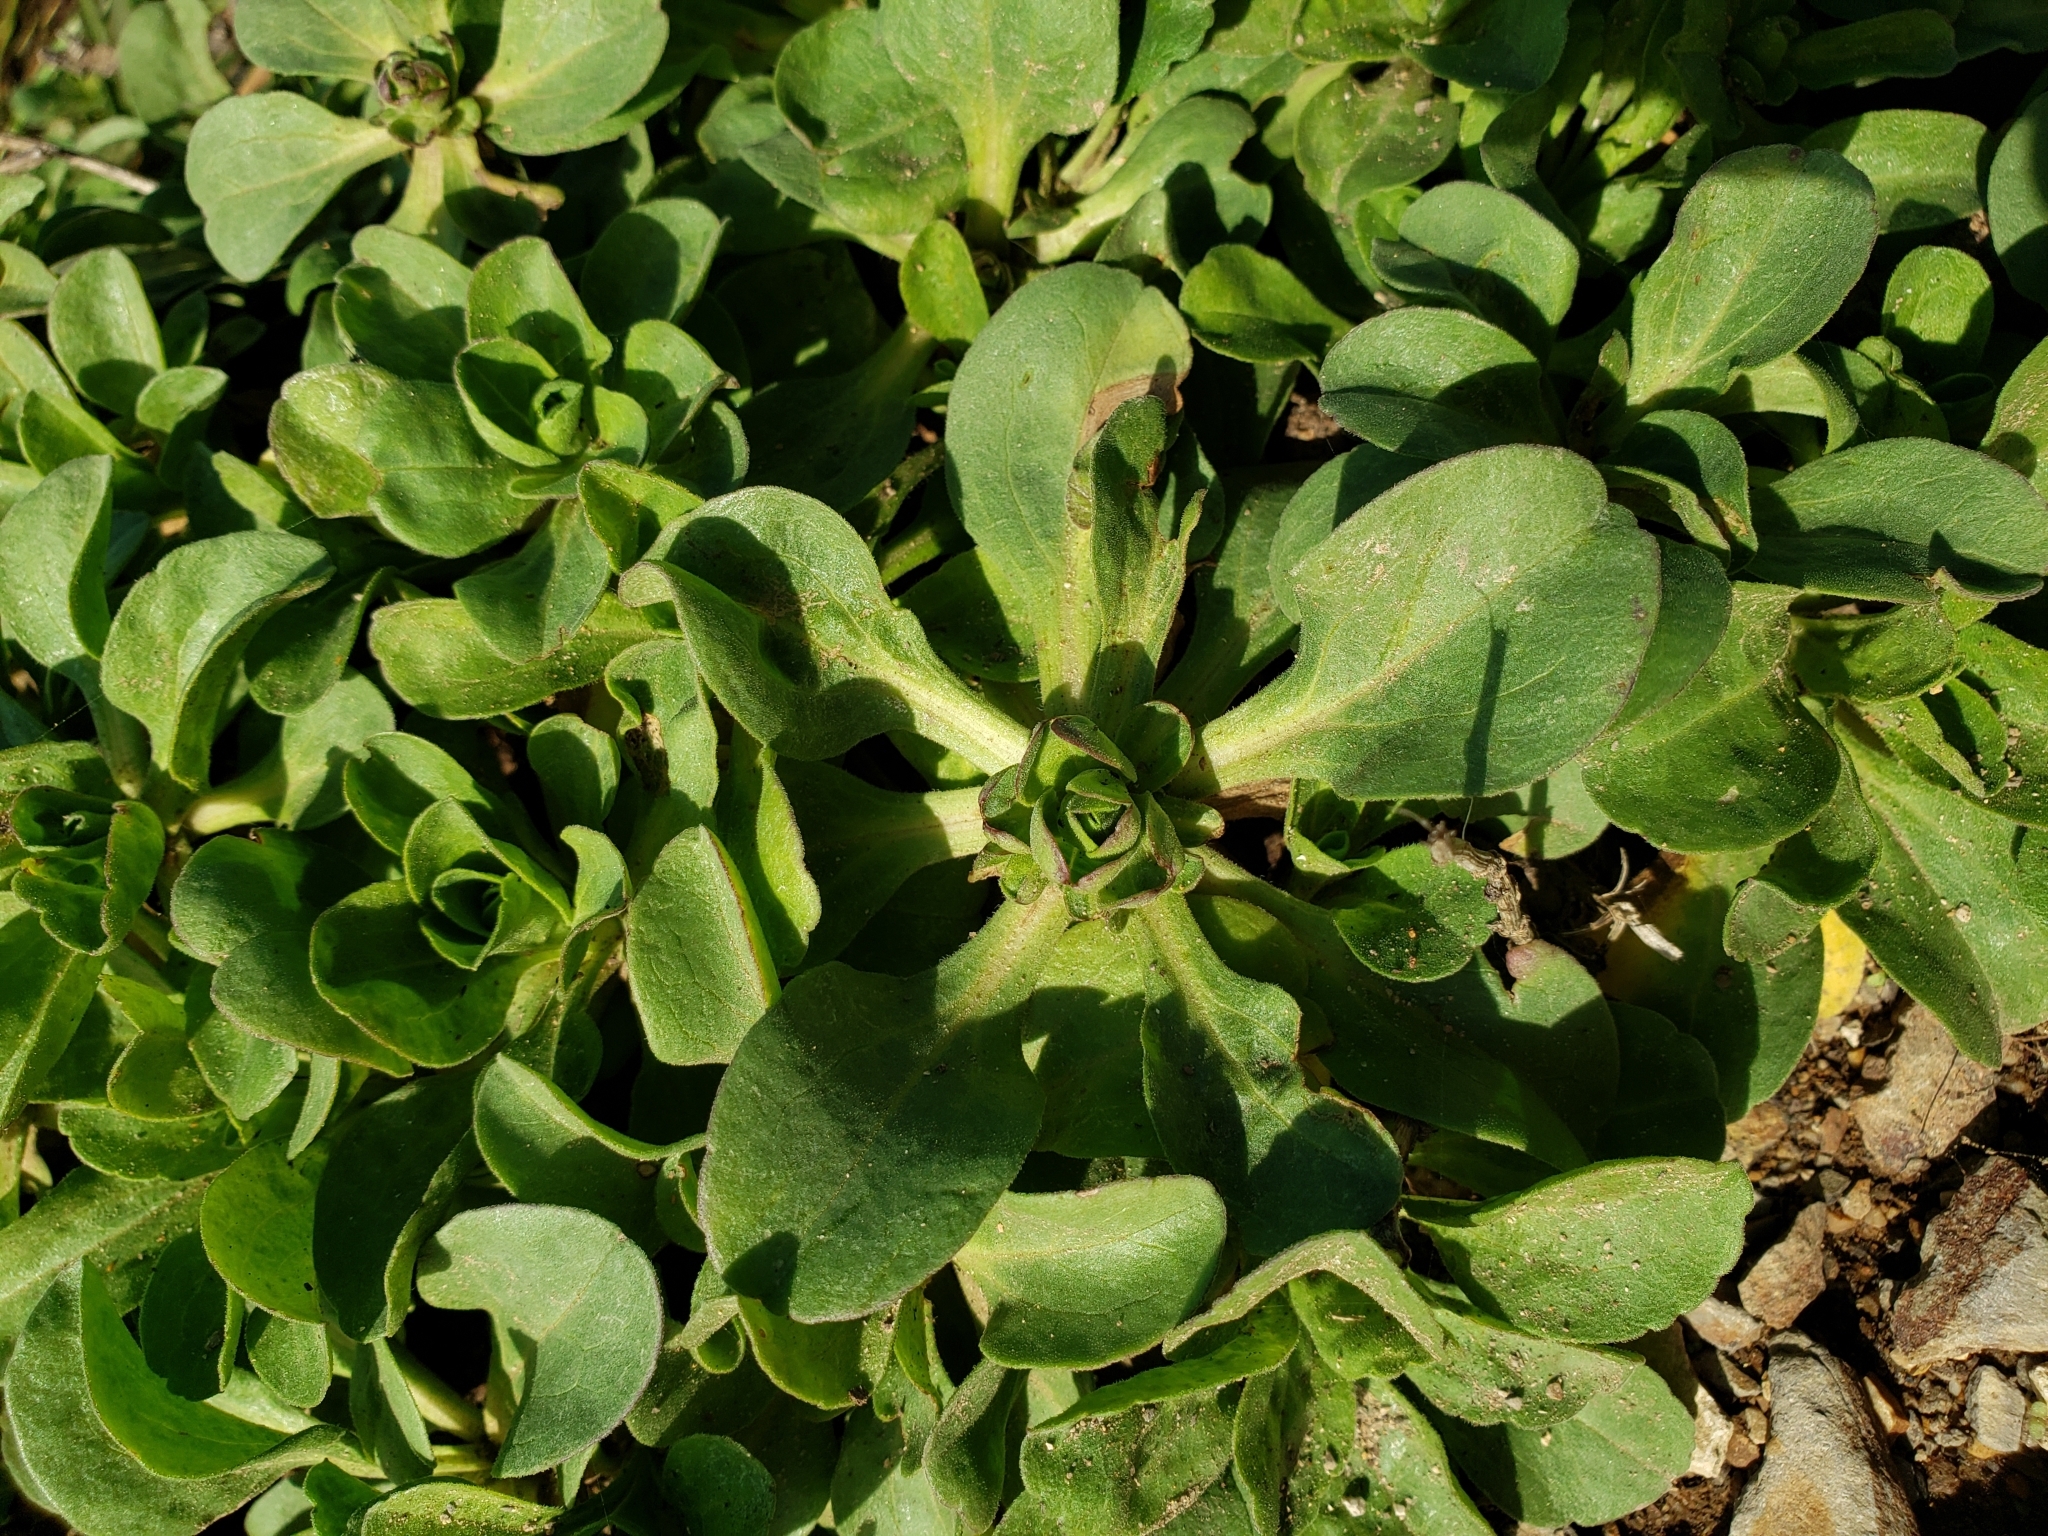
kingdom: Plantae
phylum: Tracheophyta
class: Magnoliopsida
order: Asterales
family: Asteraceae
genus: Erigeron
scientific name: Erigeron glaucus
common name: Seaside daisy
